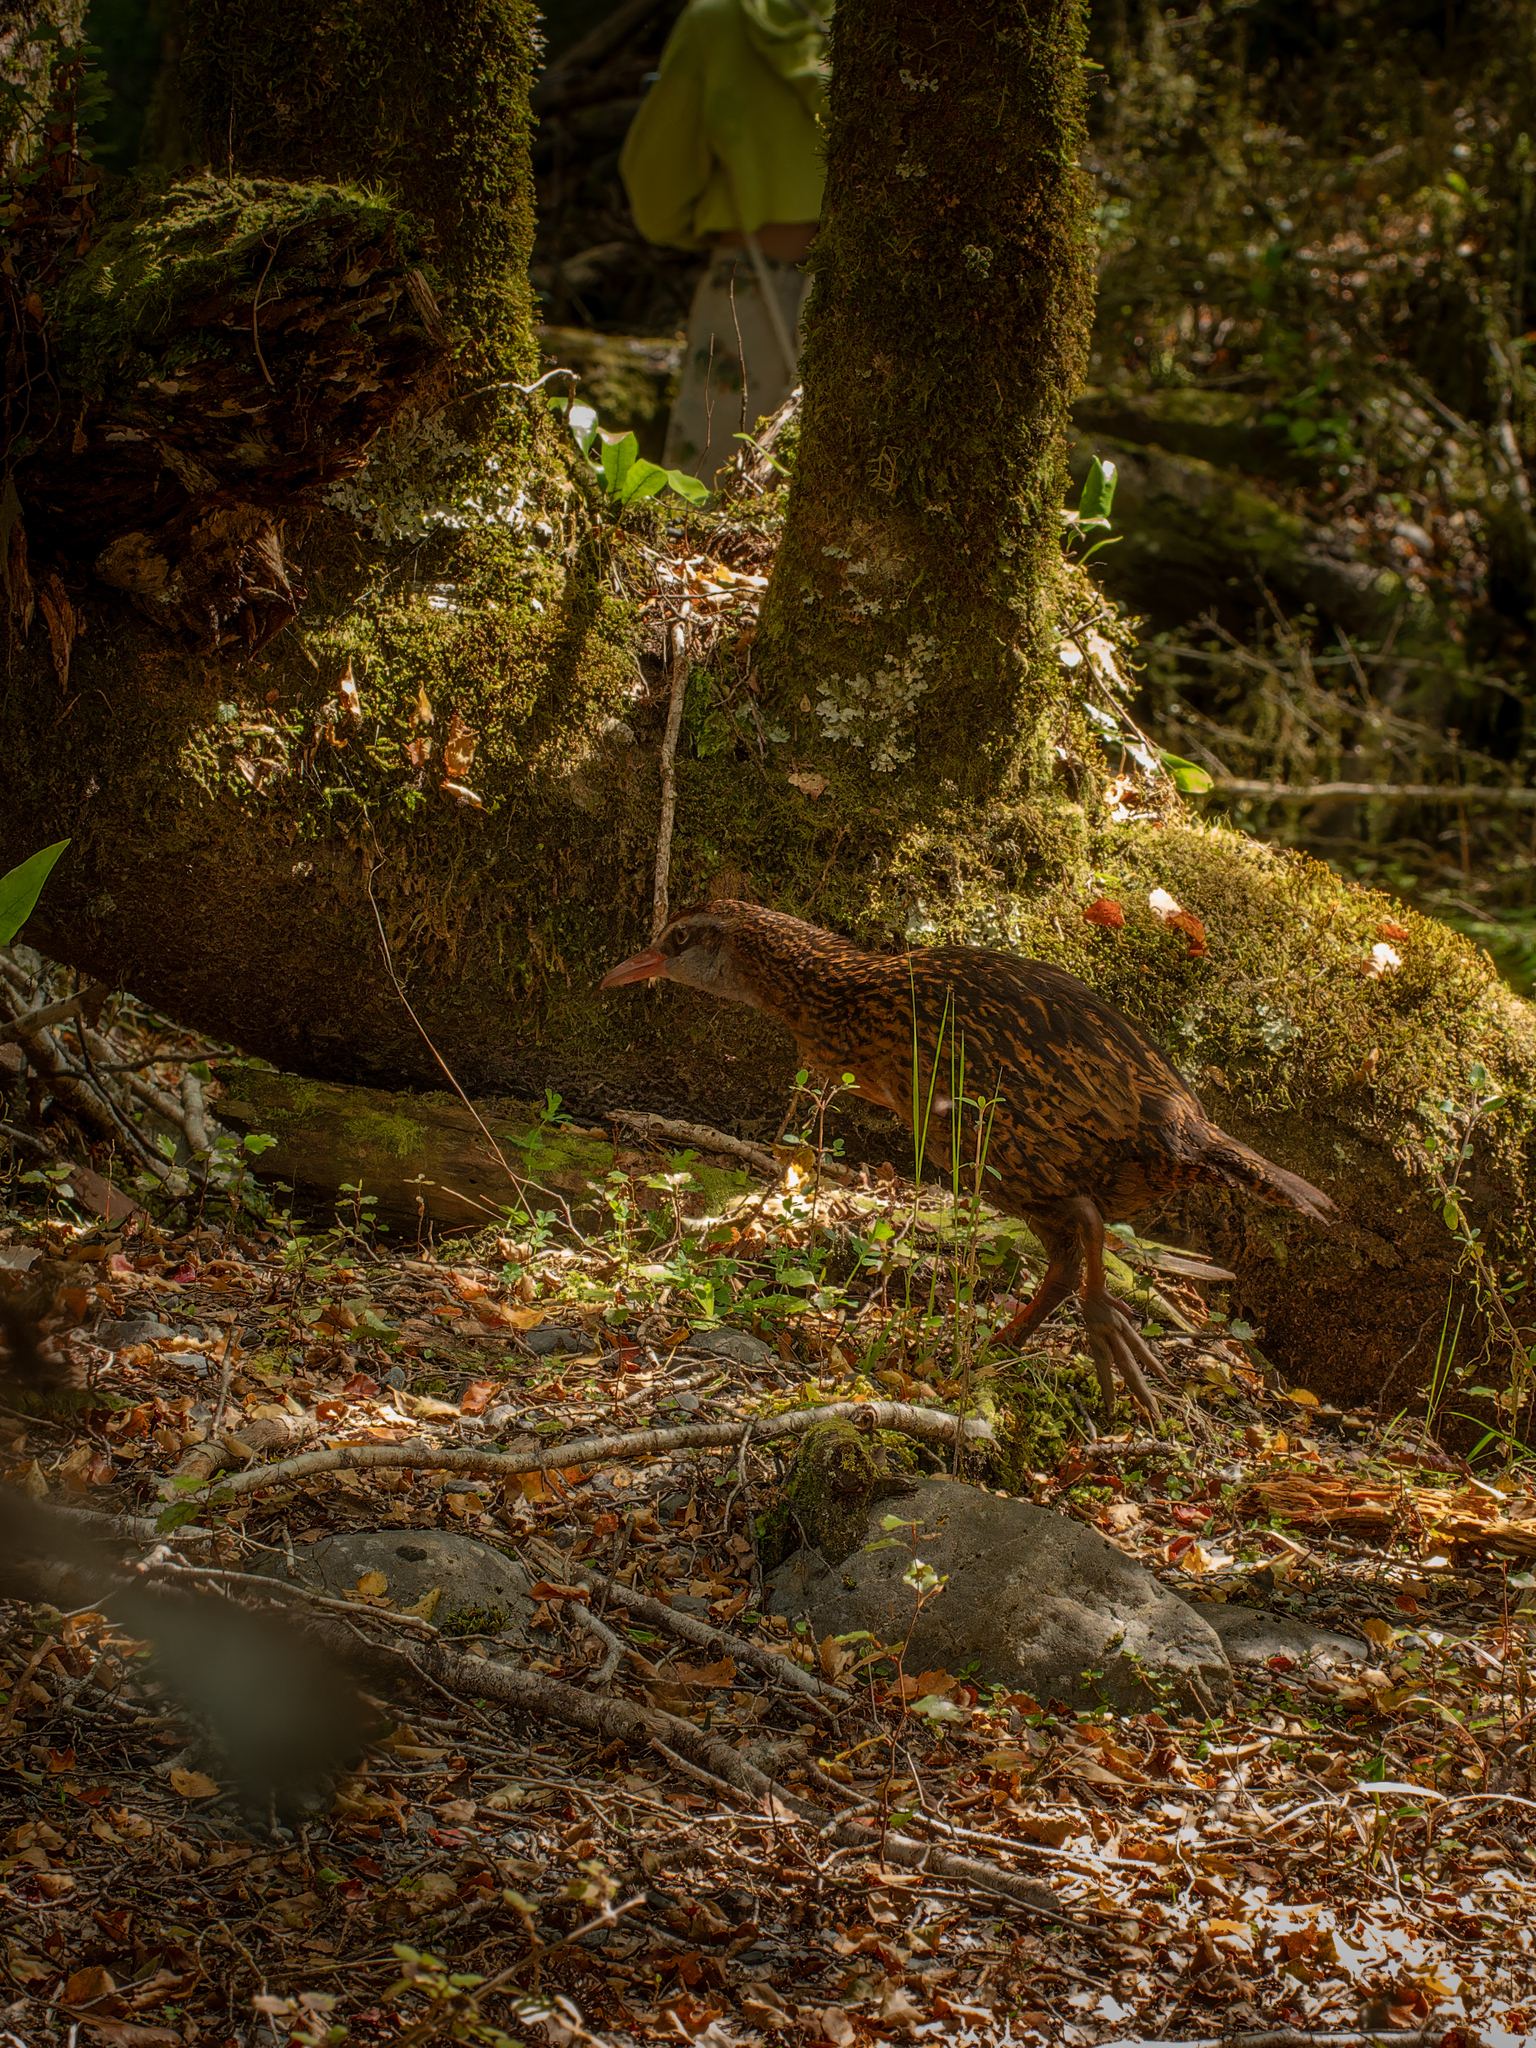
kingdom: Animalia
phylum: Chordata
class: Aves
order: Gruiformes
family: Rallidae
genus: Gallirallus
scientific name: Gallirallus australis
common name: Weka
